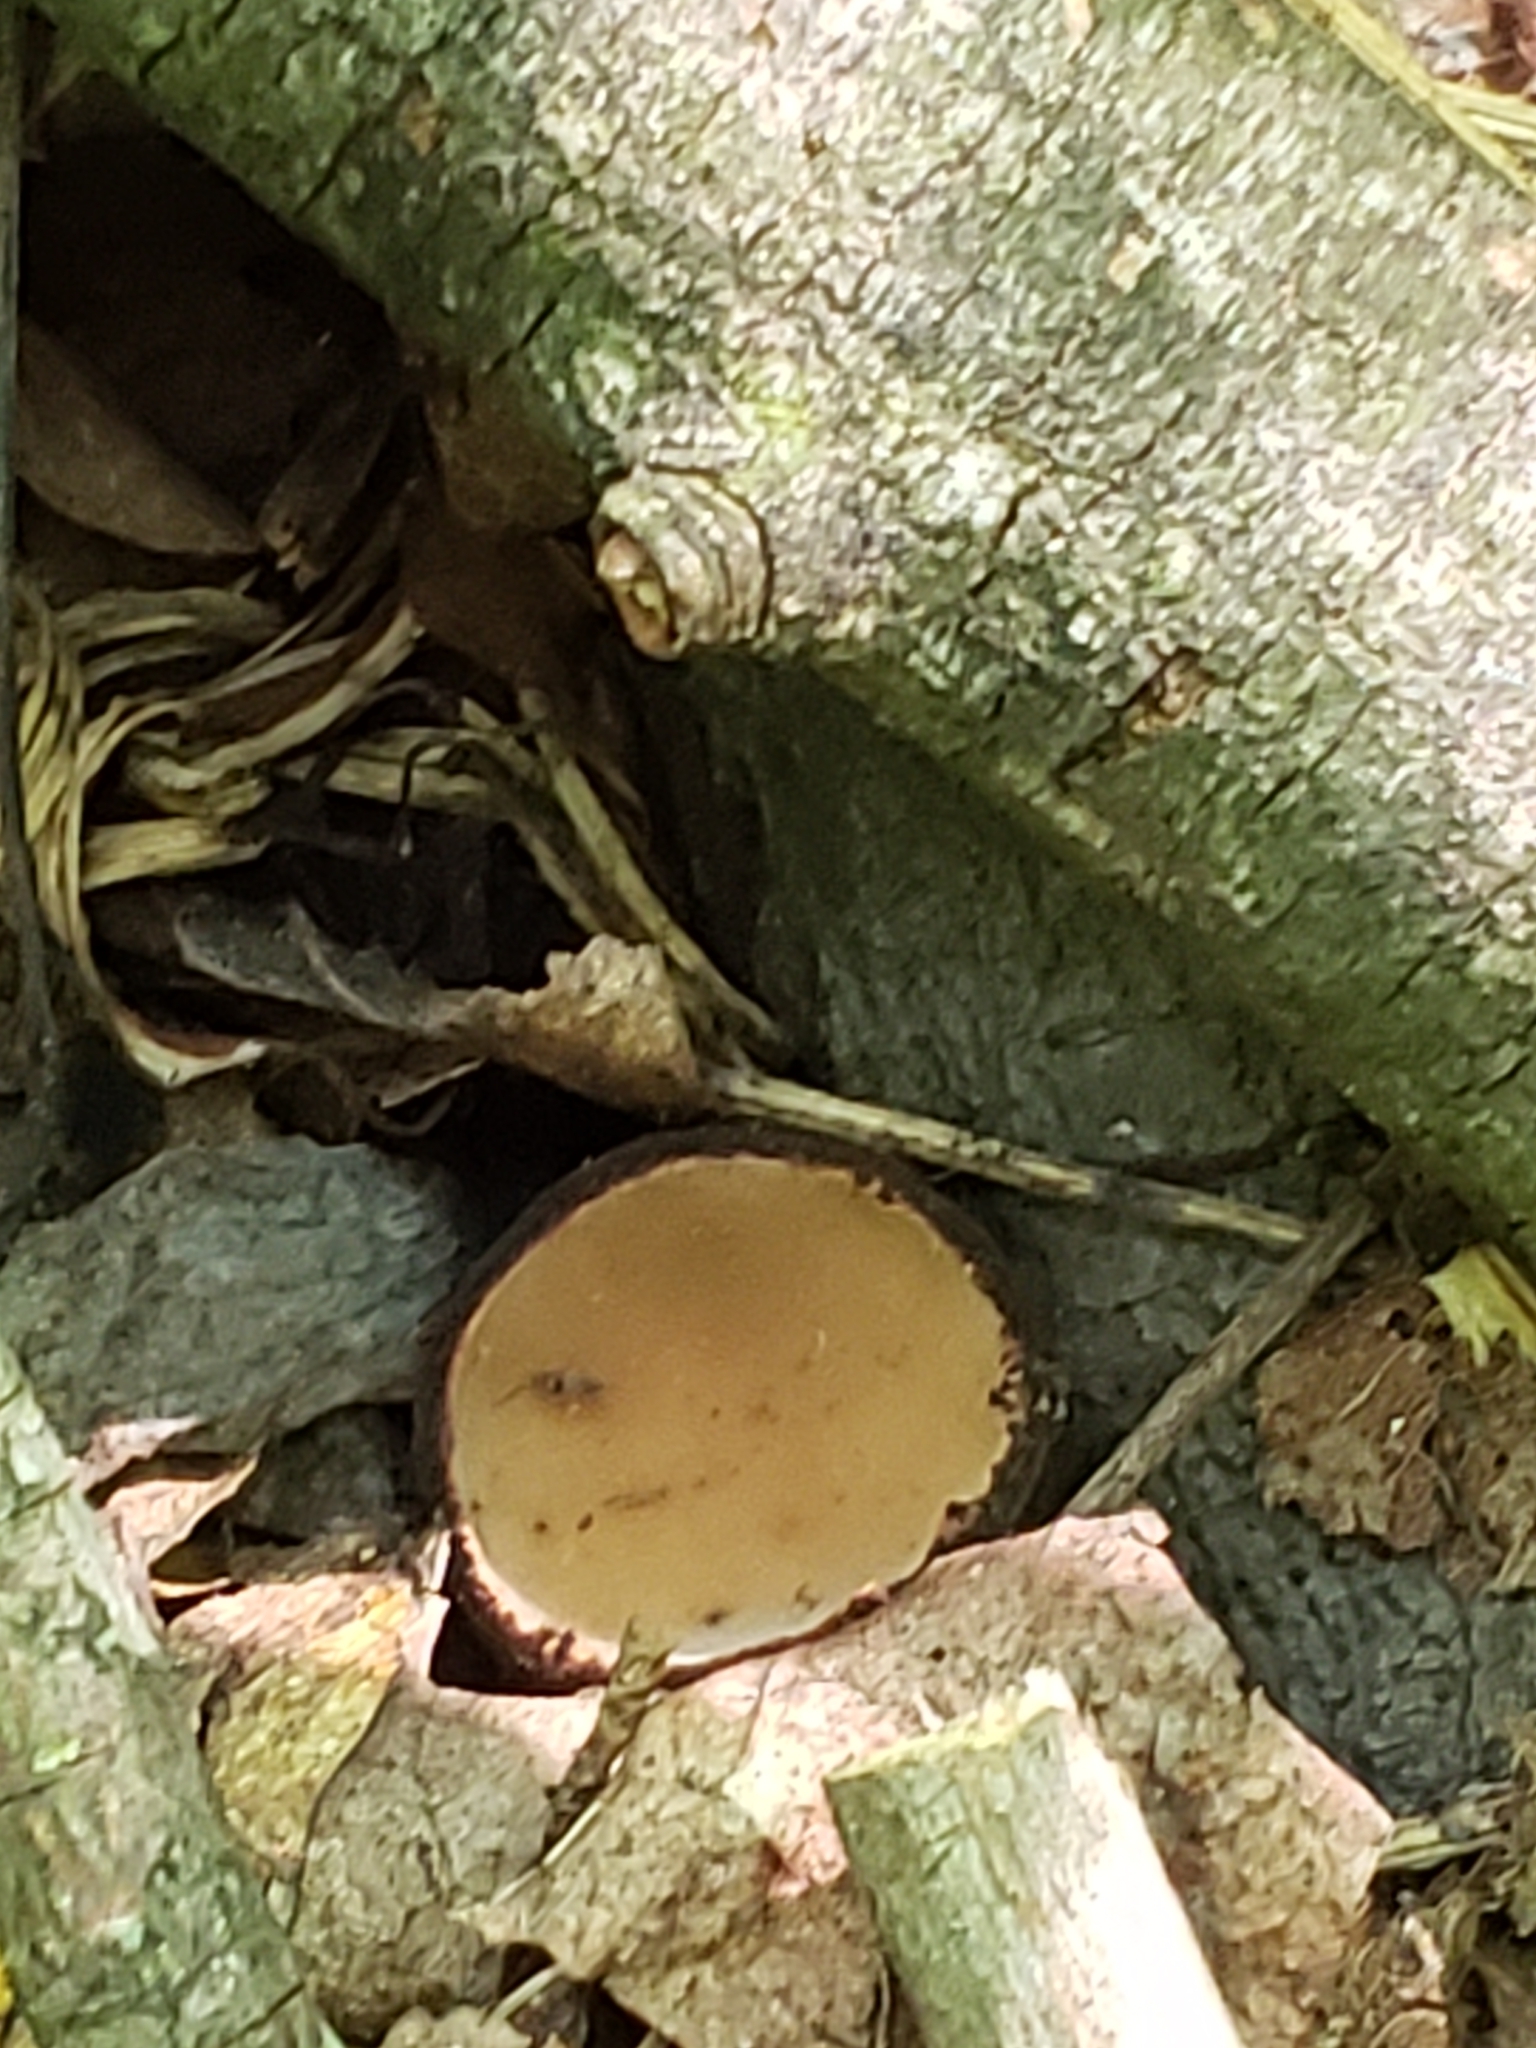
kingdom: Fungi
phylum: Ascomycota
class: Pezizomycetes
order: Pezizales
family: Sarcosomataceae
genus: Galiella
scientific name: Galiella rufa
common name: Hairy rubber cup
